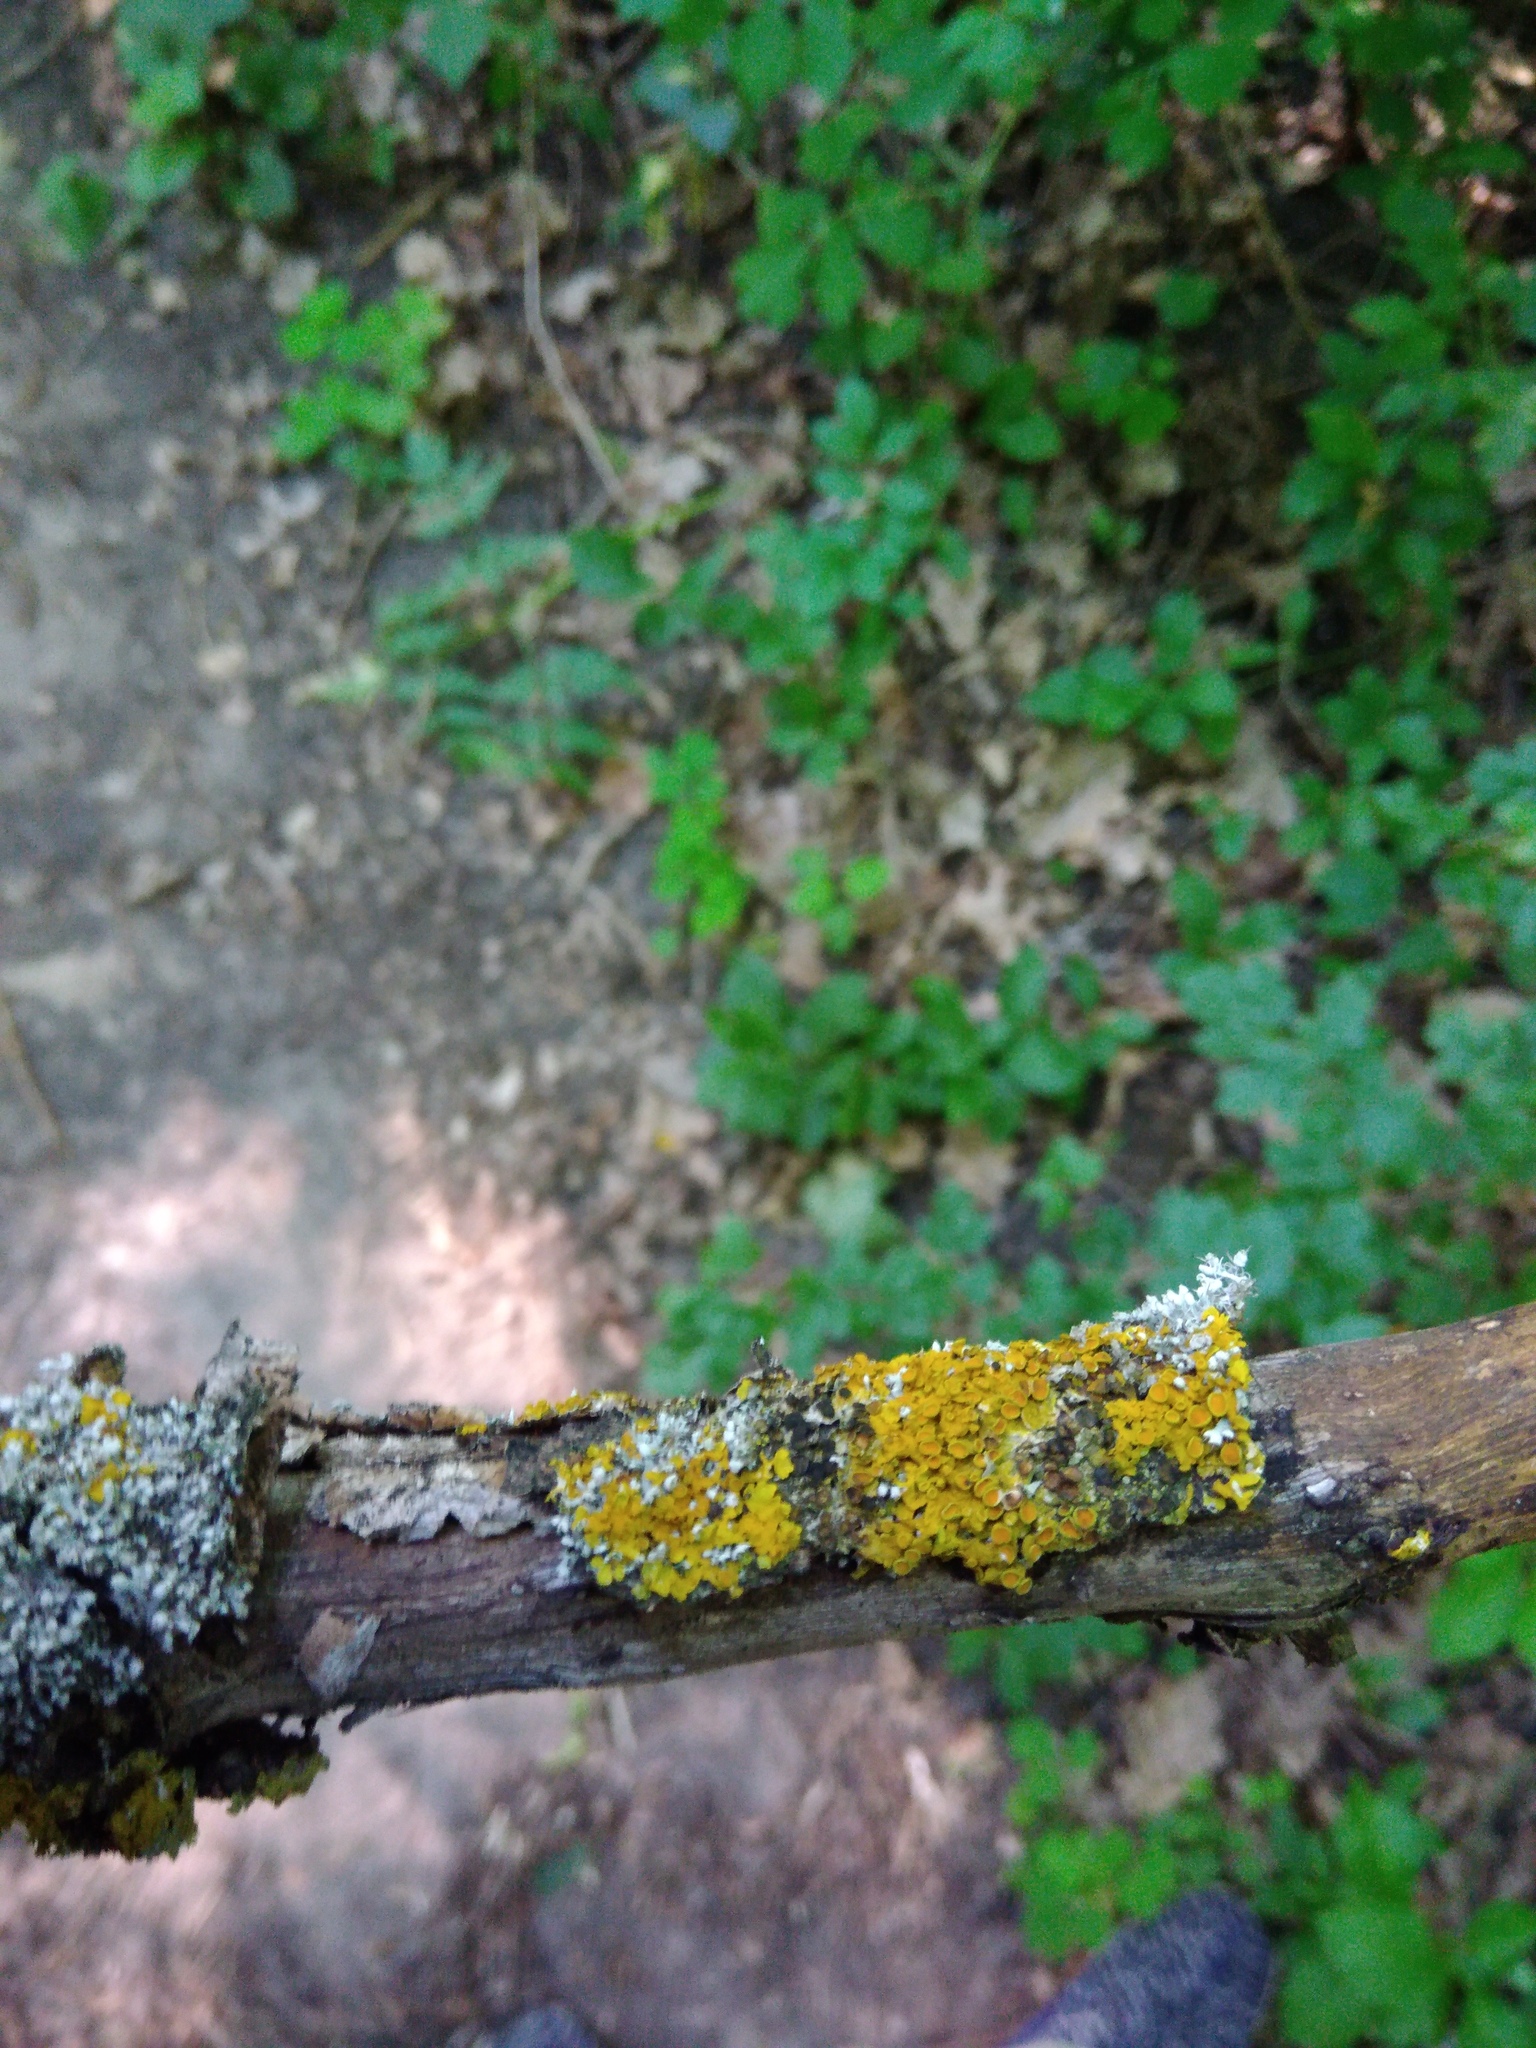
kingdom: Fungi
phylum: Ascomycota
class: Dothideomycetes
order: Mycosphaerellales
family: Teratosphaeriaceae
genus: Xanthoriicola
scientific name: Xanthoriicola physciae
